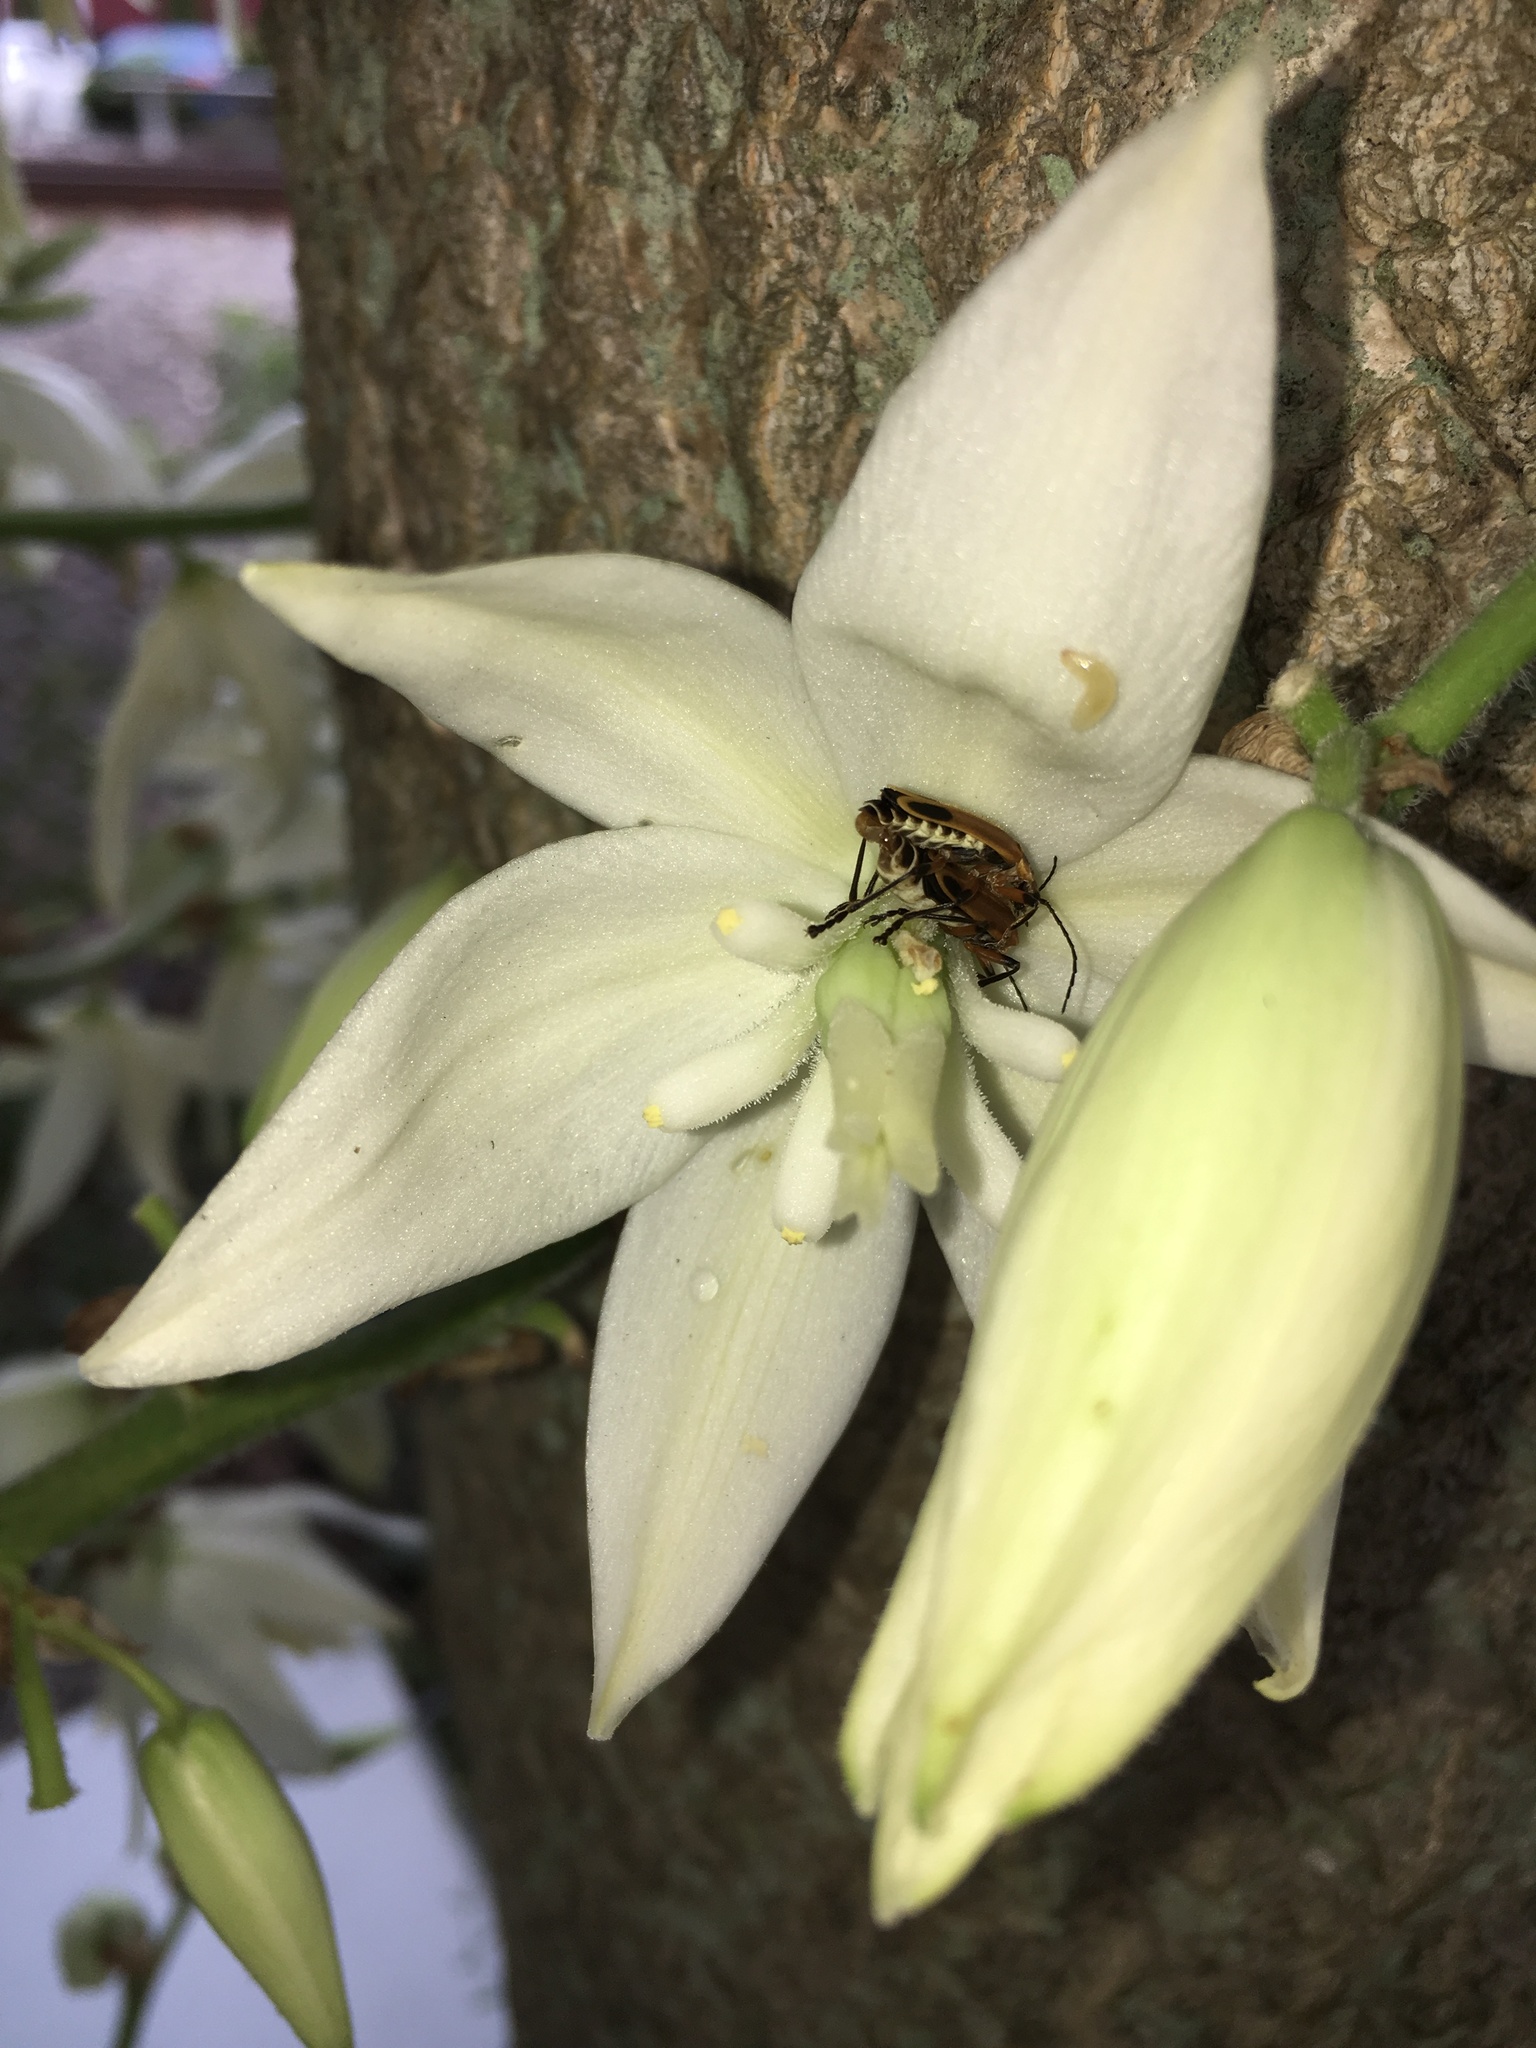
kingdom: Animalia
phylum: Arthropoda
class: Insecta
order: Coleoptera
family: Cantharidae
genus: Chauliognathus
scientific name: Chauliognathus marginatus
